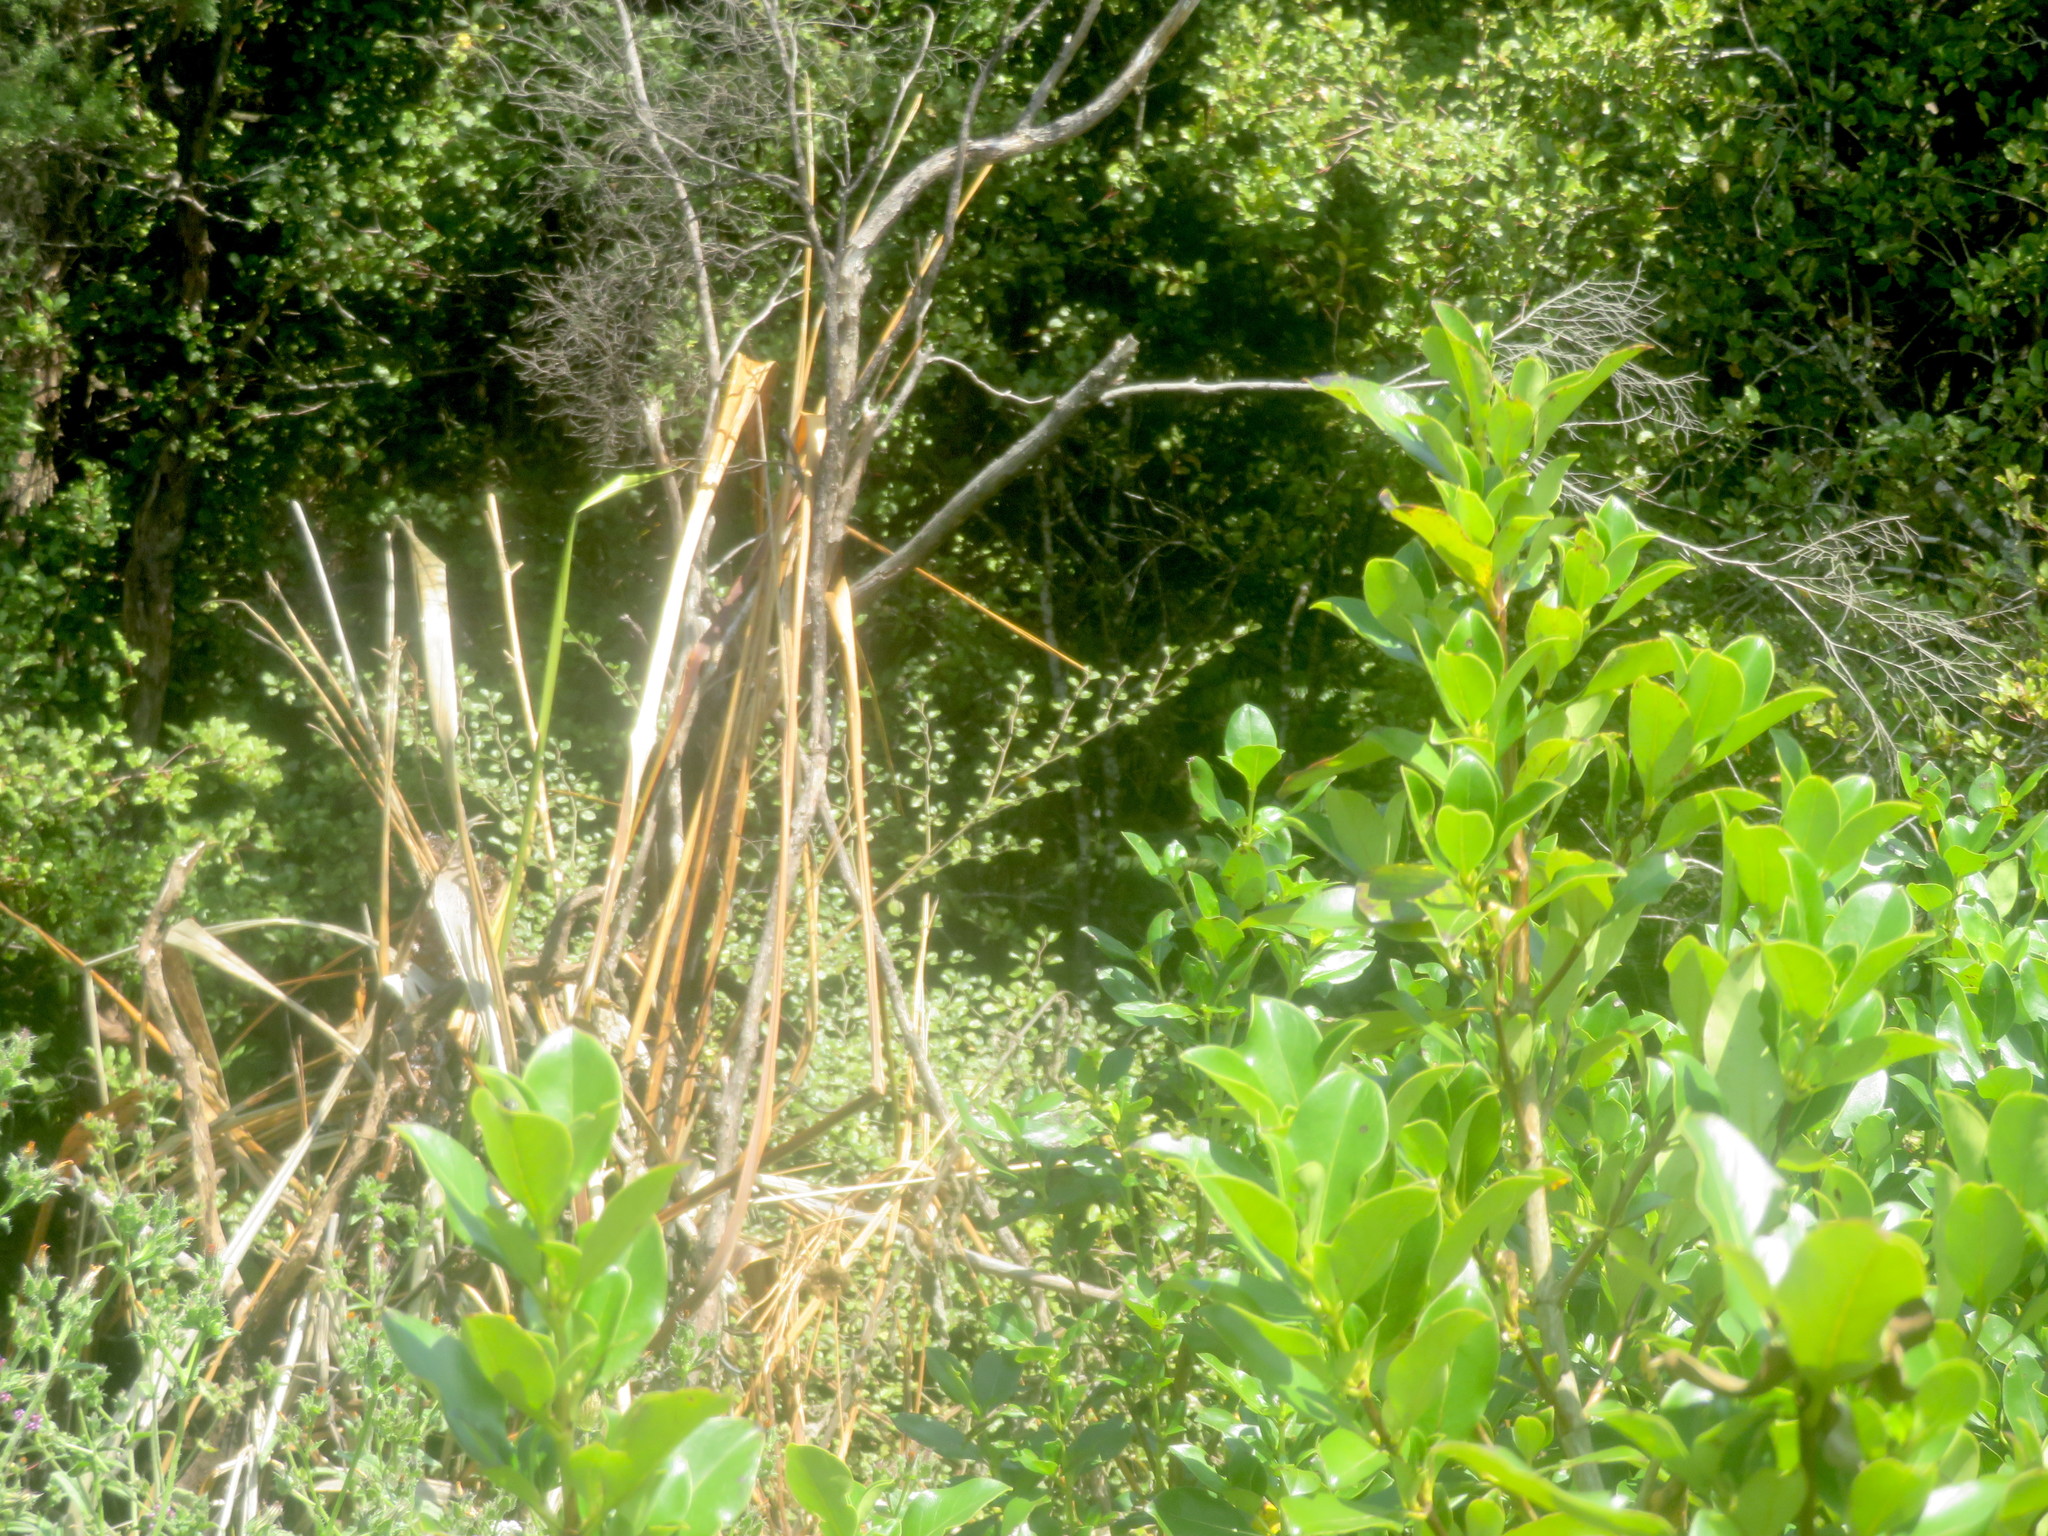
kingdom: Plantae
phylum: Tracheophyta
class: Magnoliopsida
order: Asterales
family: Rousseaceae
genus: Carpodetus
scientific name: Carpodetus serratus
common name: White mapau
